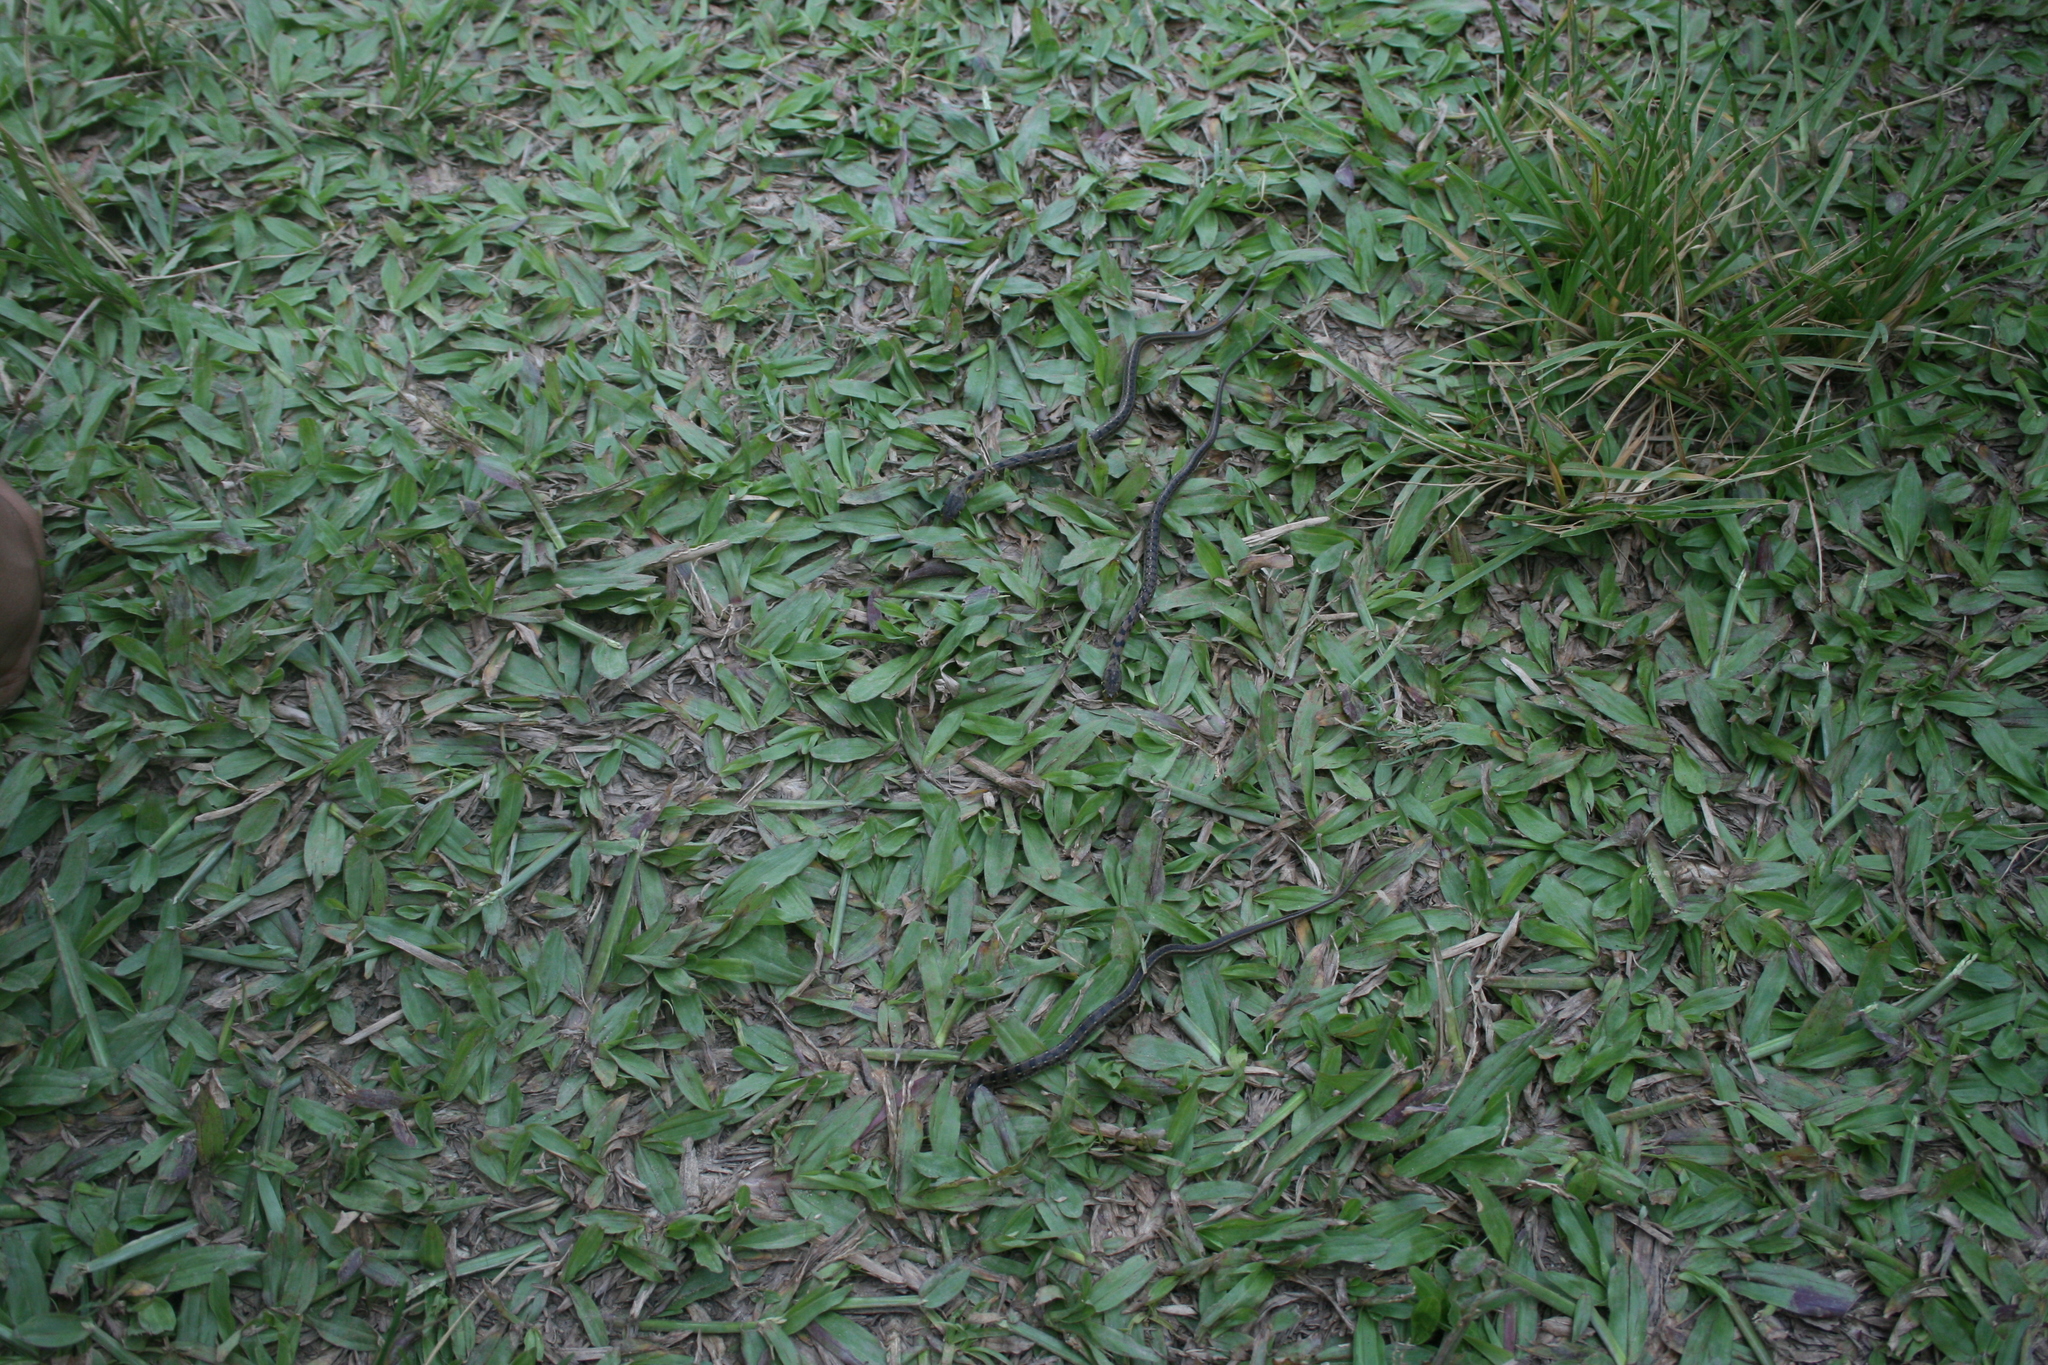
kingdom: Animalia
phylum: Chordata
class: Squamata
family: Colubridae
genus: Amphiesma
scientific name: Amphiesma stolatum
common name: Buff striped keelback
